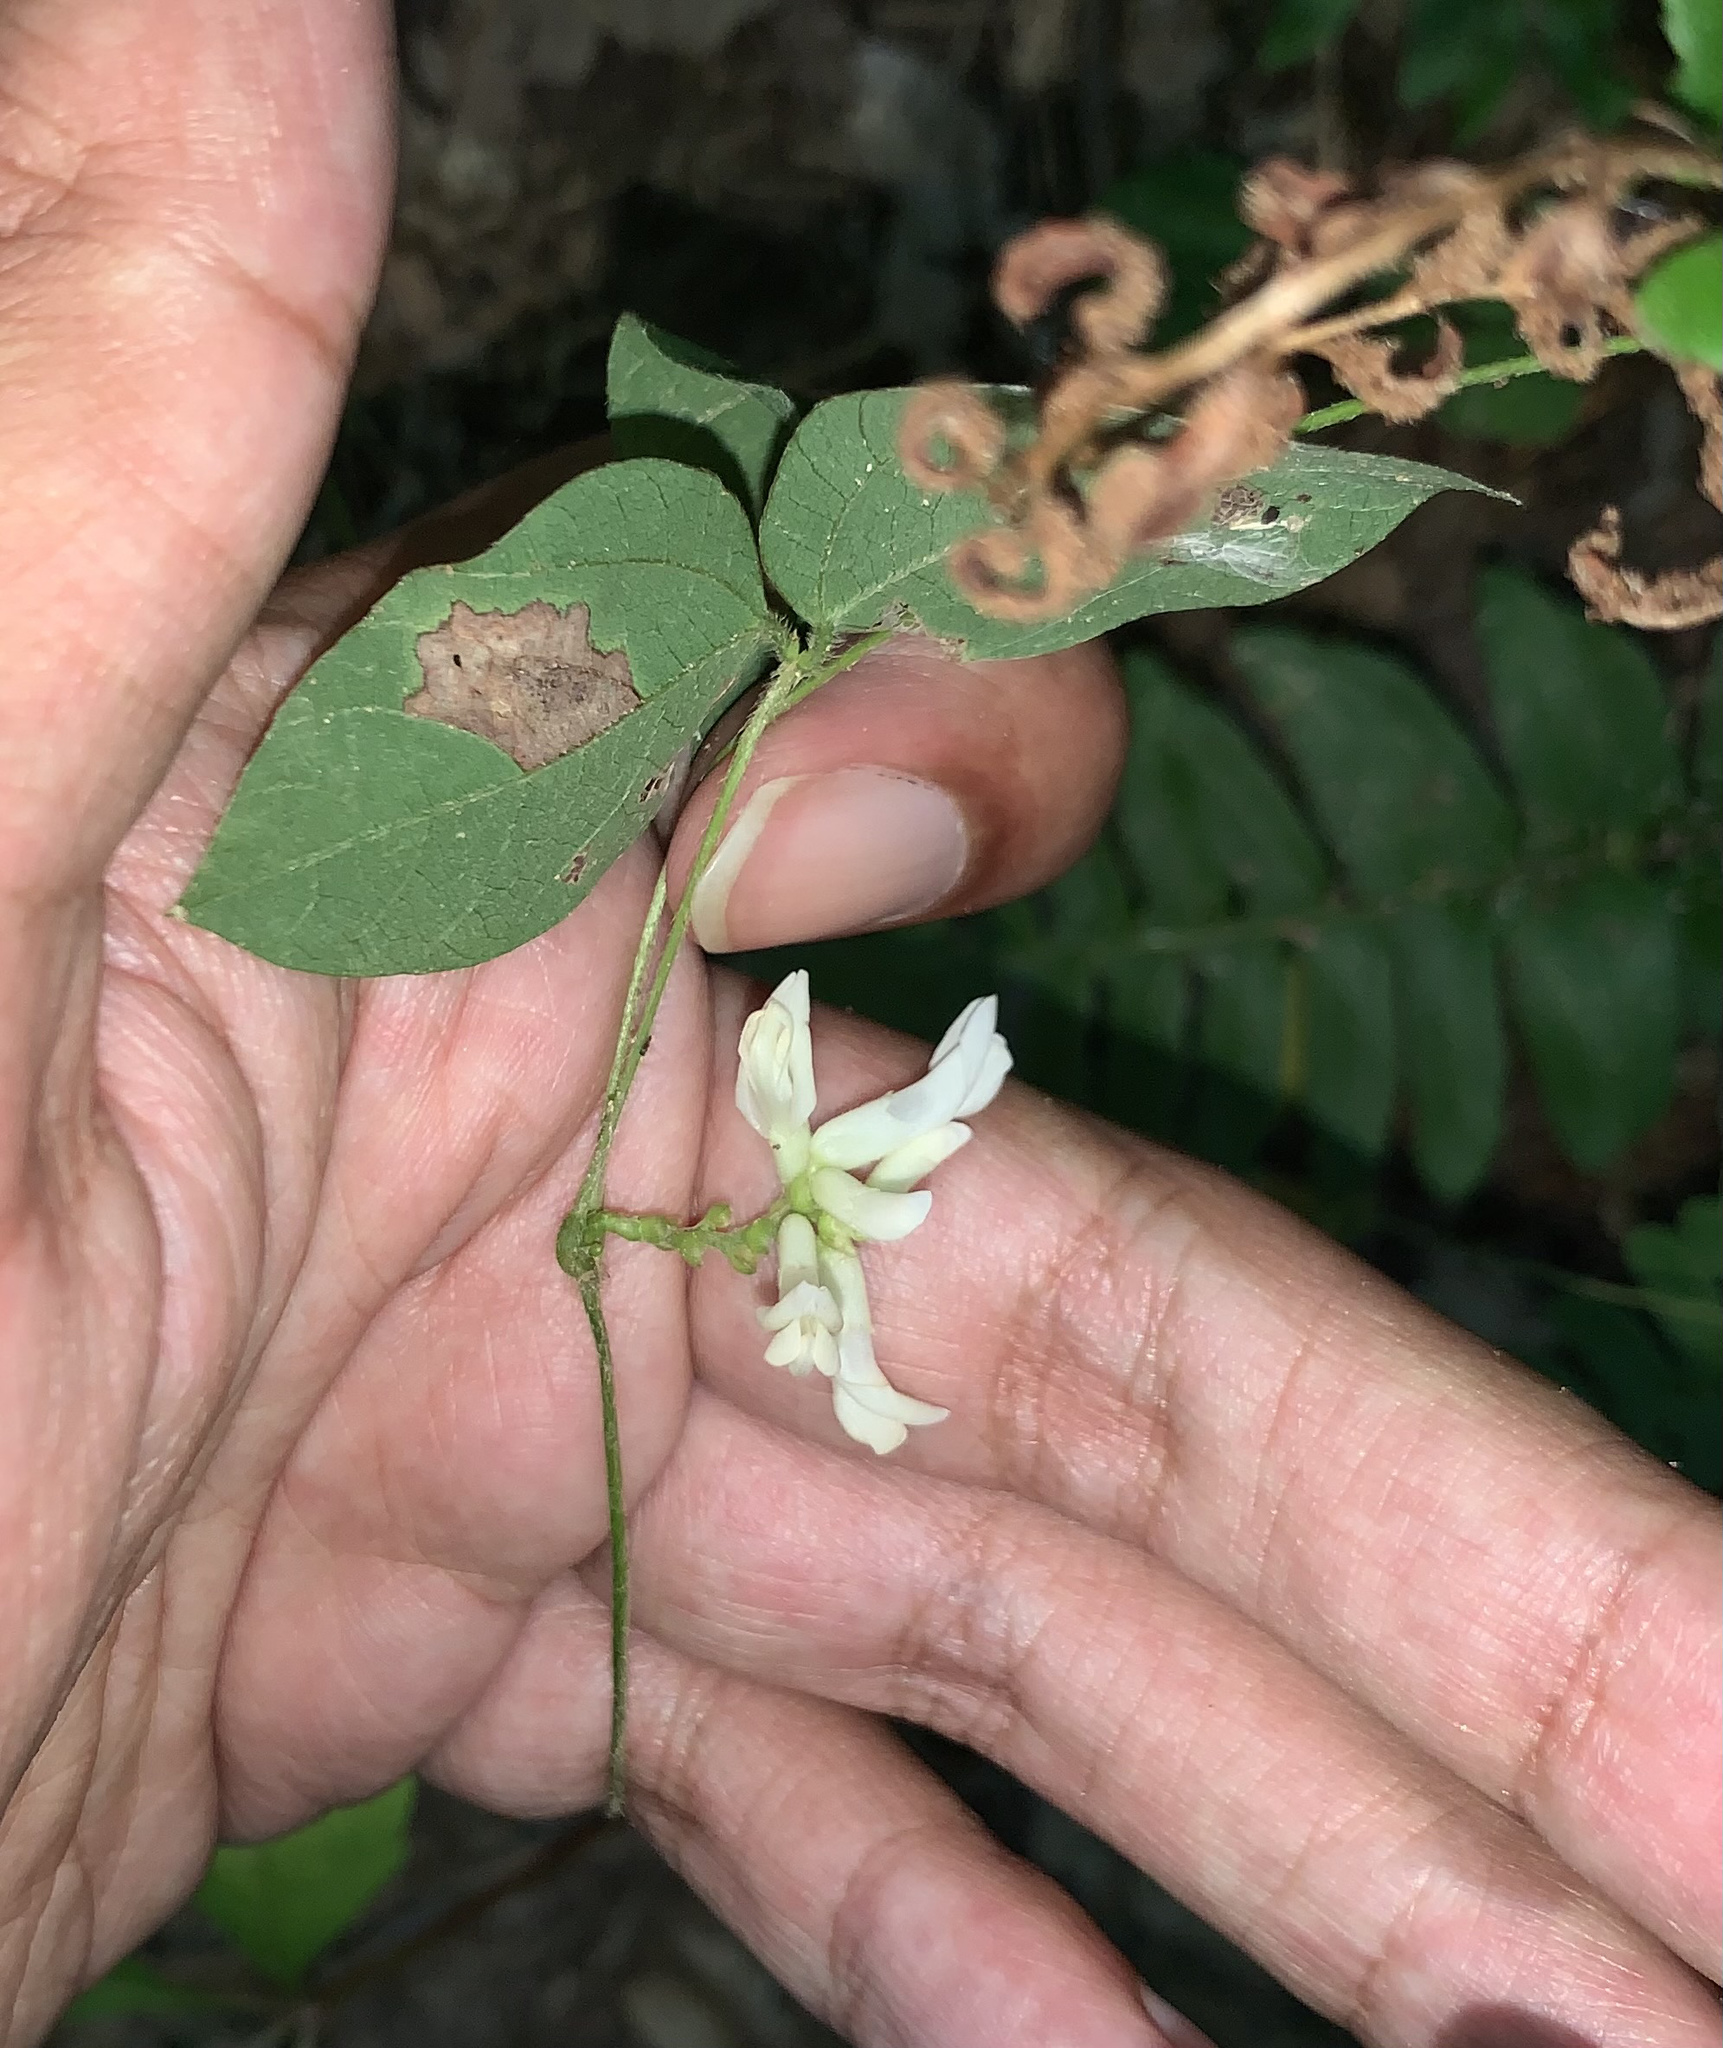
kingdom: Plantae
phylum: Tracheophyta
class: Magnoliopsida
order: Fabales
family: Fabaceae
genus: Amphicarpaea
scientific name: Amphicarpaea bracteata
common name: American hog peanut
